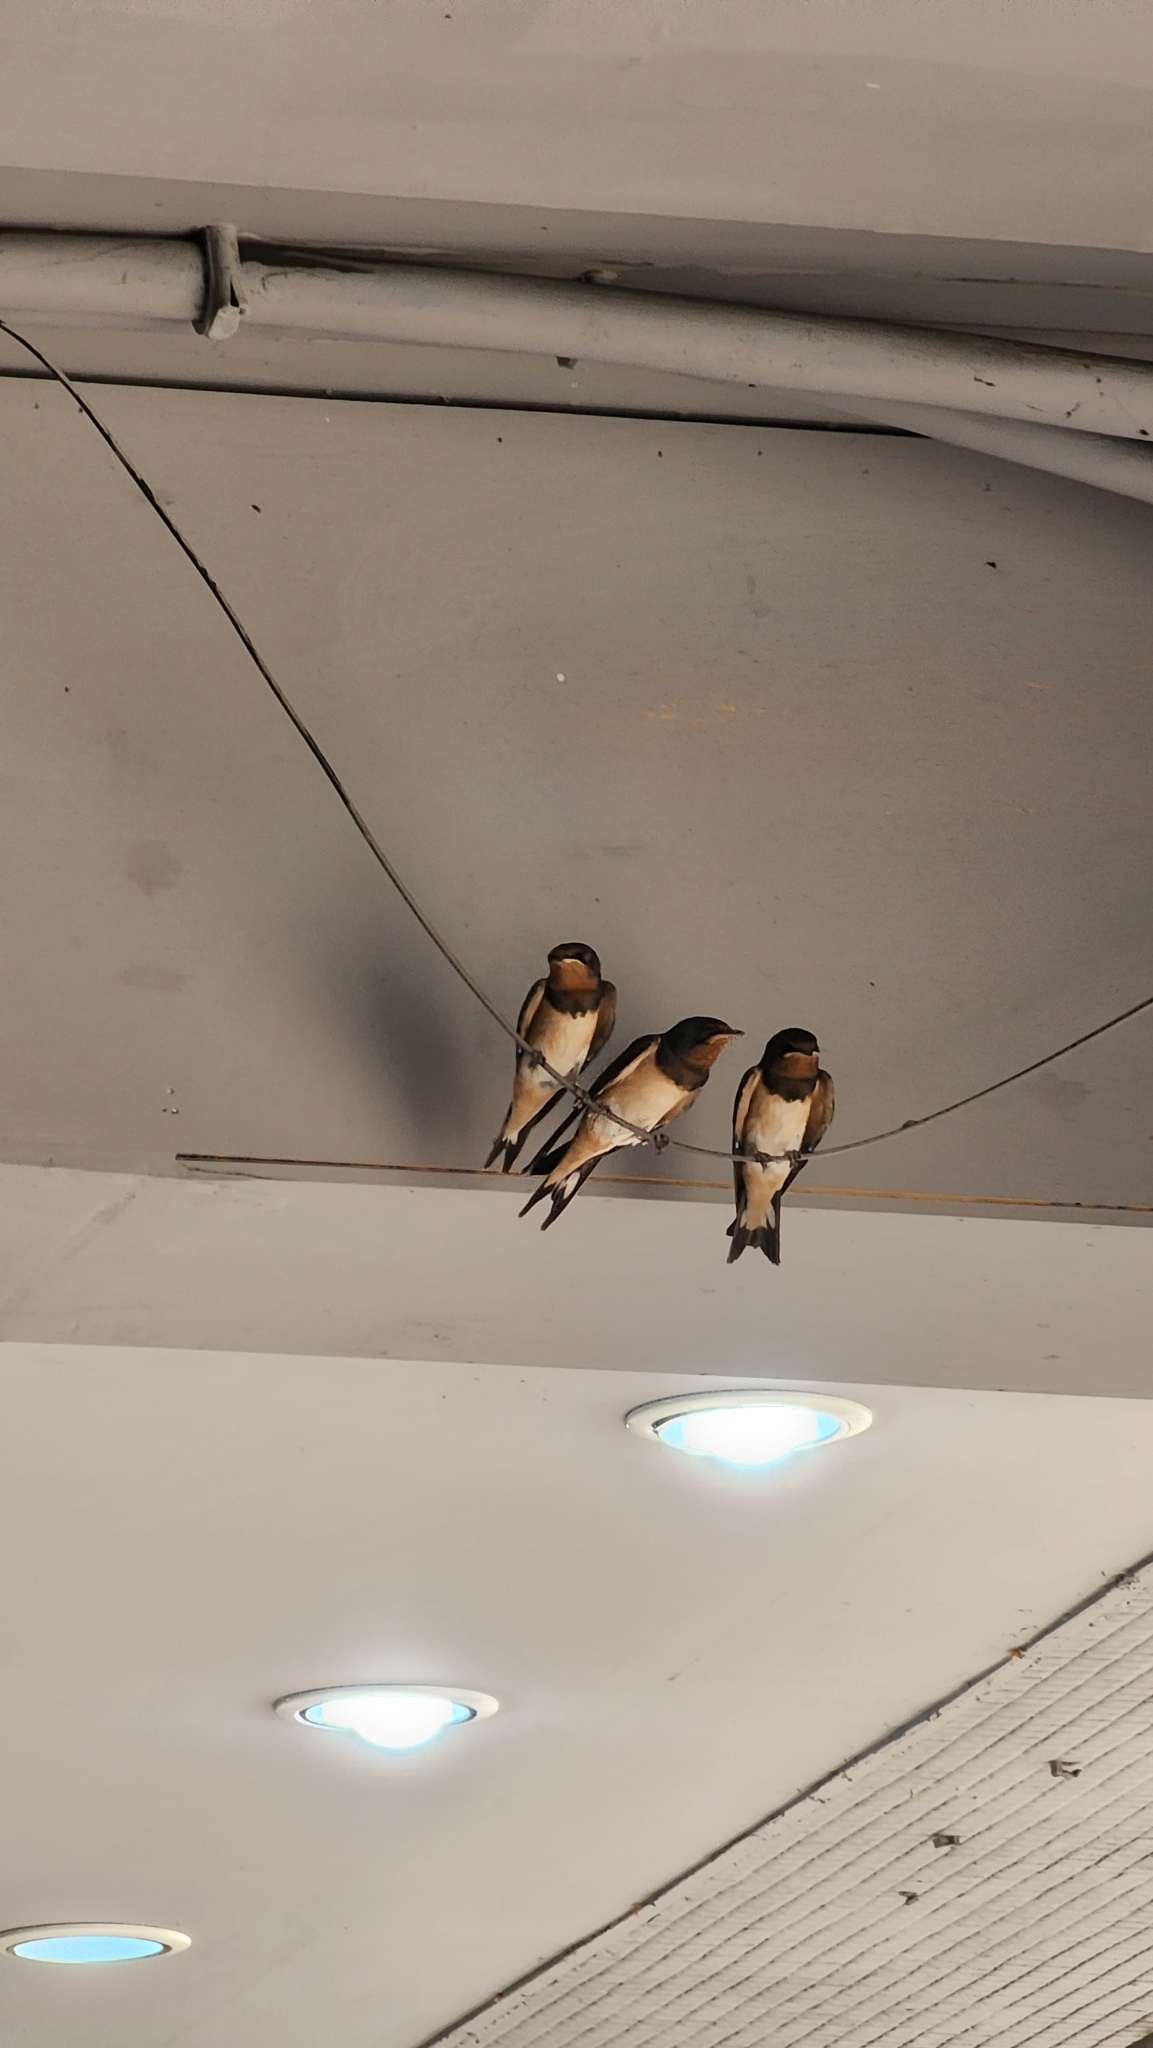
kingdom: Animalia
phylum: Chordata
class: Aves
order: Passeriformes
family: Hirundinidae
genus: Hirundo
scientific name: Hirundo rustica
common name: Barn swallow
